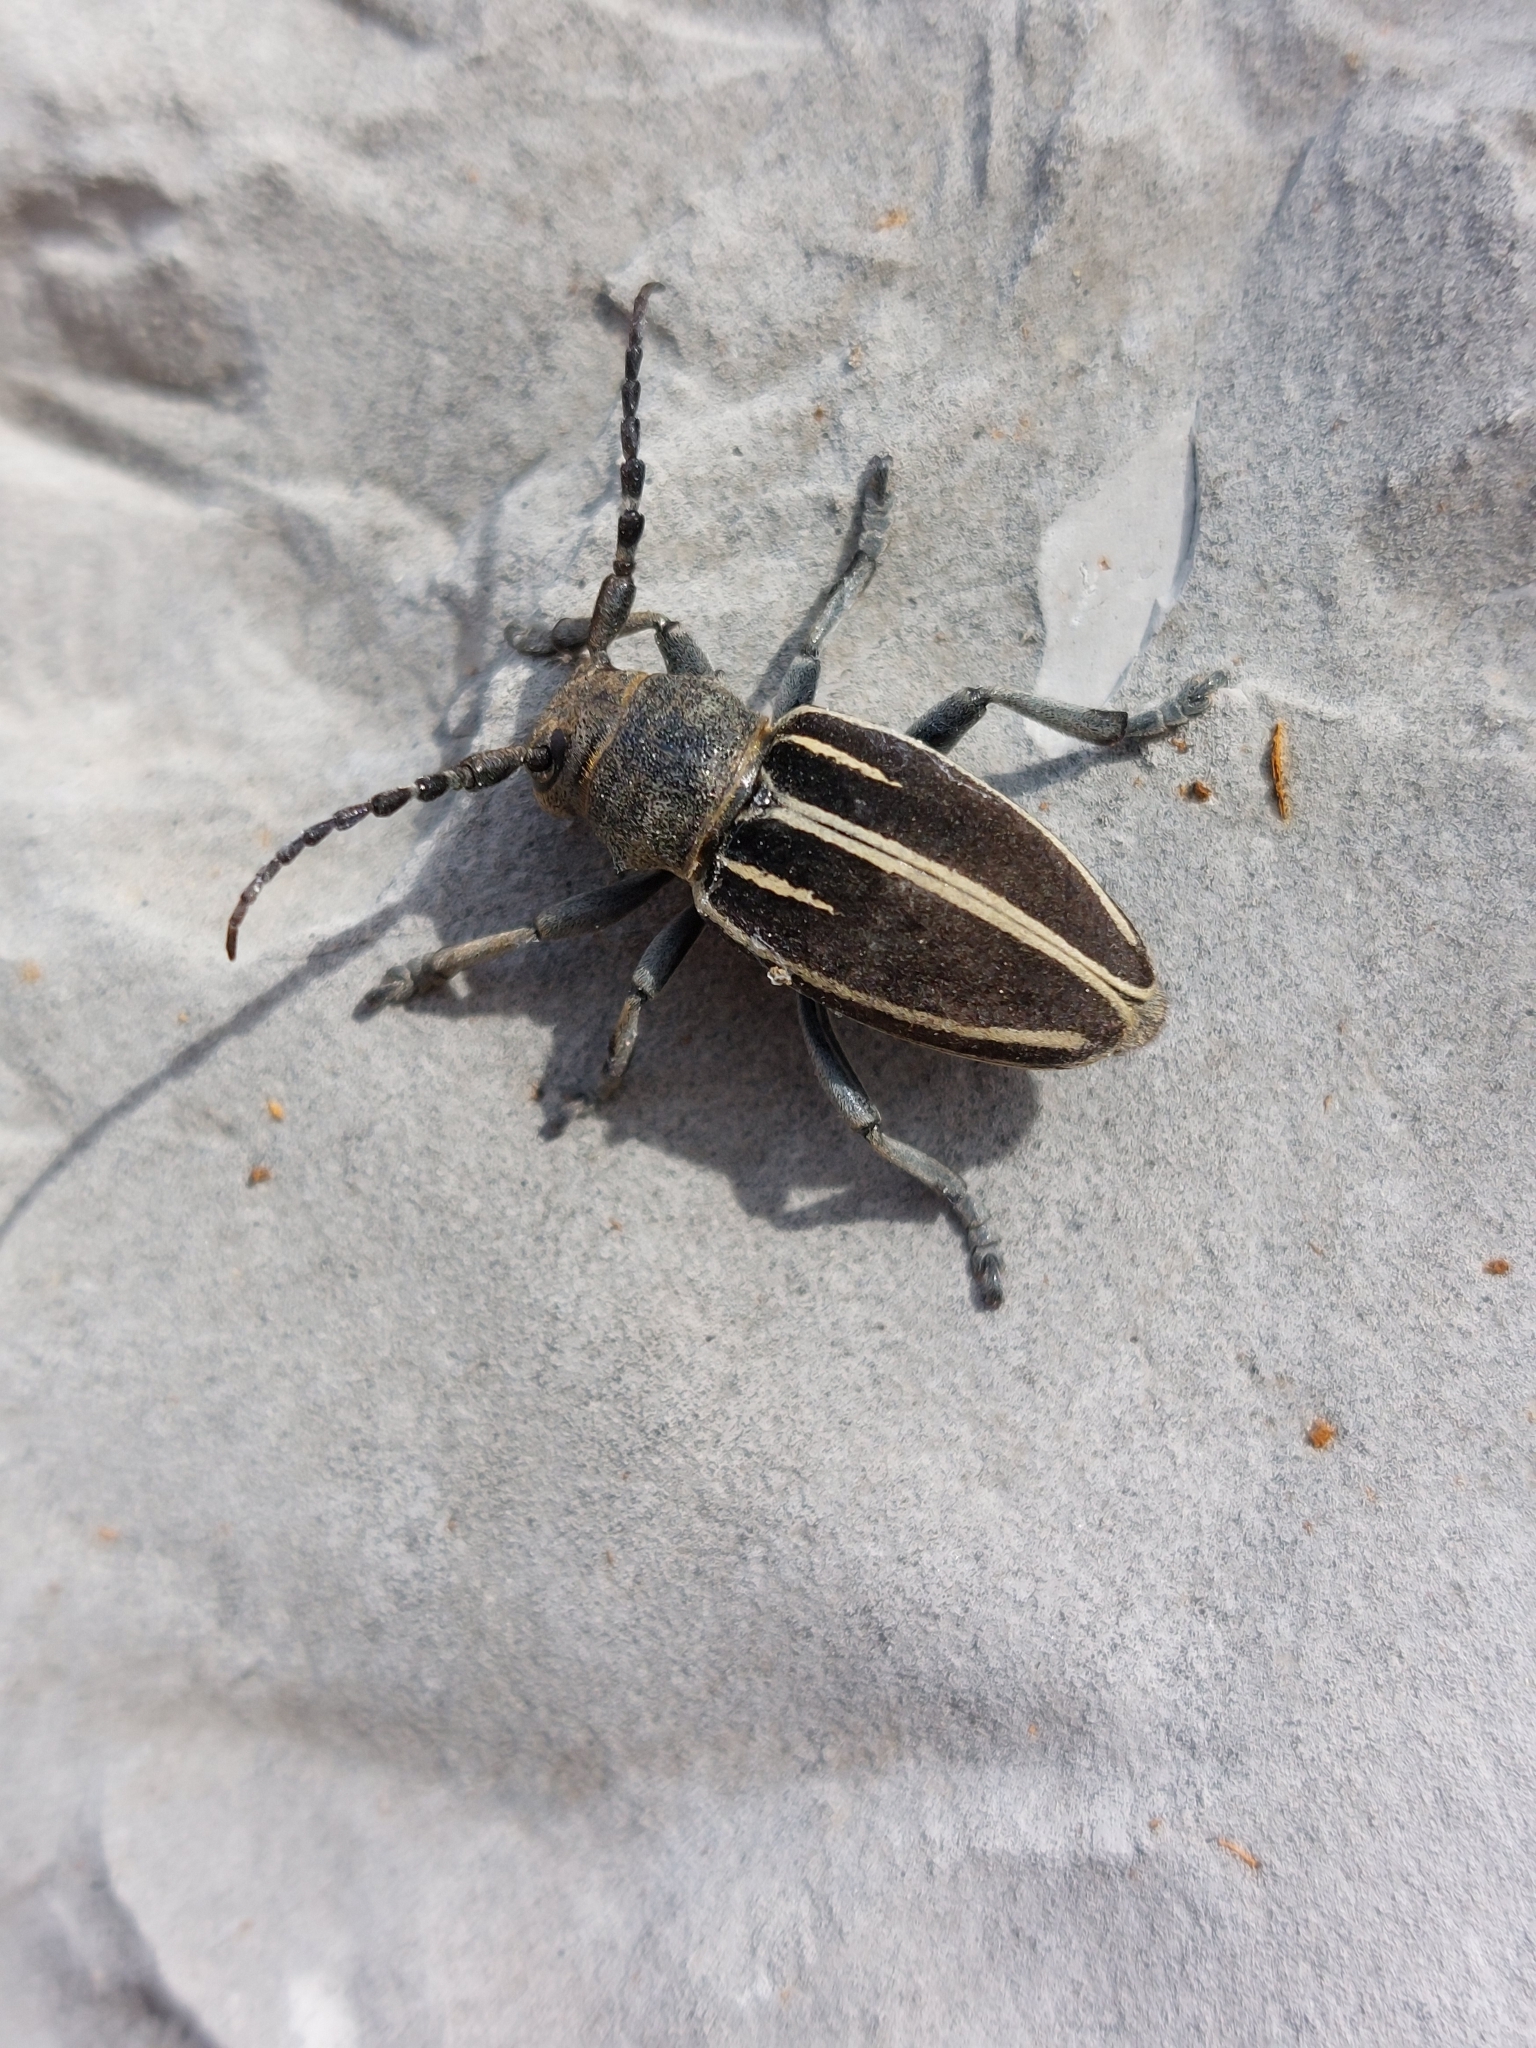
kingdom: Animalia
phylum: Arthropoda
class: Insecta
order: Coleoptera
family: Cerambycidae
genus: Iberodorcadion
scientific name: Iberodorcadion fuliginator
